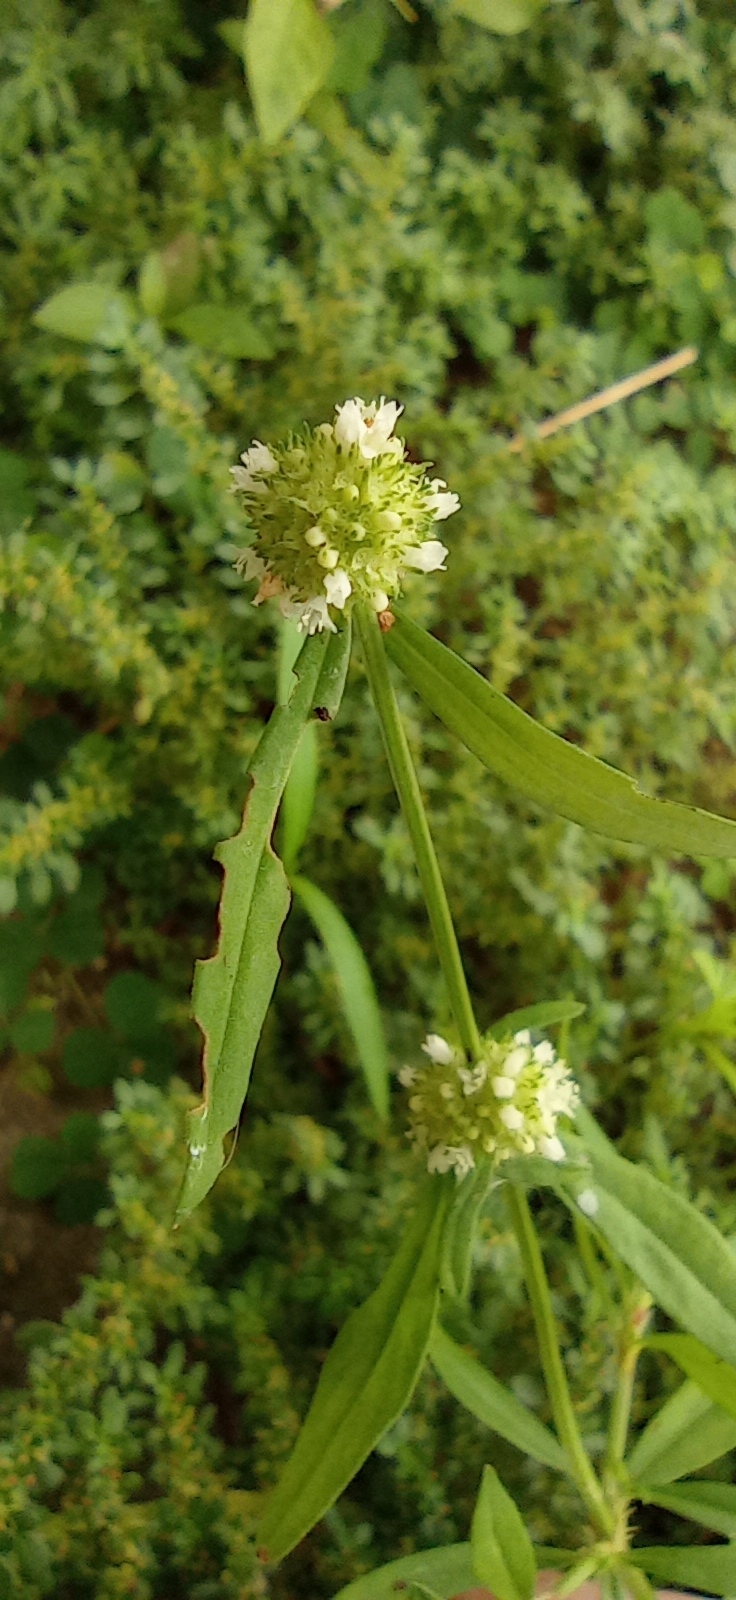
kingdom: Plantae
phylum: Tracheophyta
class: Magnoliopsida
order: Gentianales
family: Rubiaceae
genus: Spermacoce
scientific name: Spermacoce verticillata
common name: Shrubby false buttonweed
